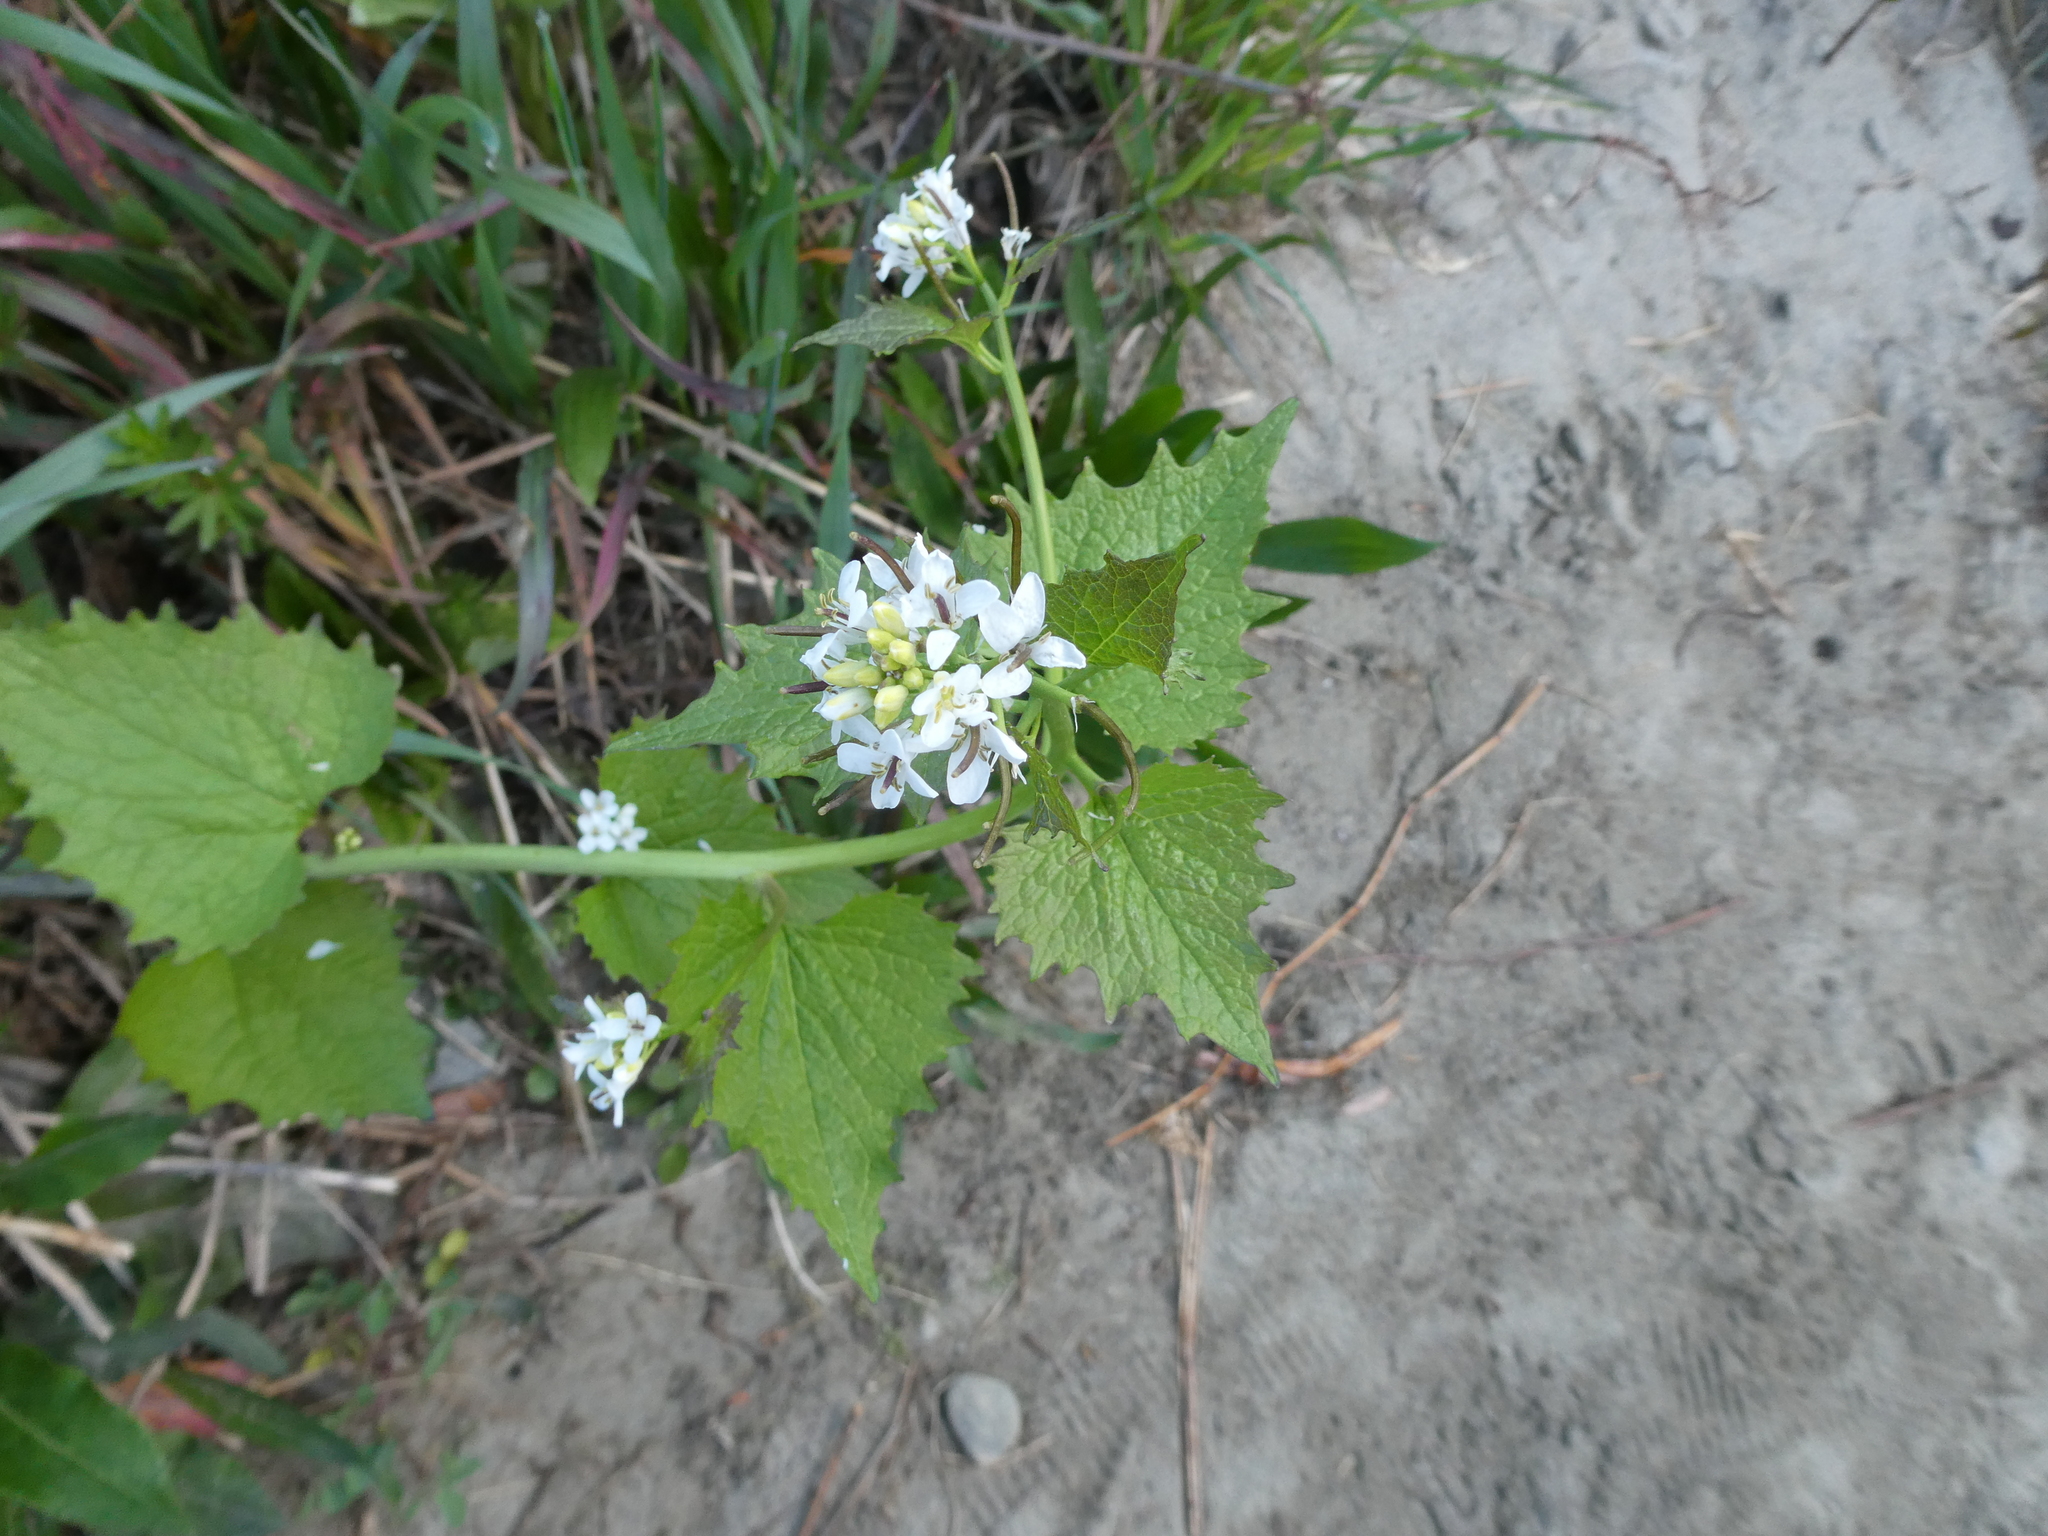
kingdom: Plantae
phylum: Tracheophyta
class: Magnoliopsida
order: Brassicales
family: Brassicaceae
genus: Alliaria
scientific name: Alliaria petiolata
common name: Garlic mustard
